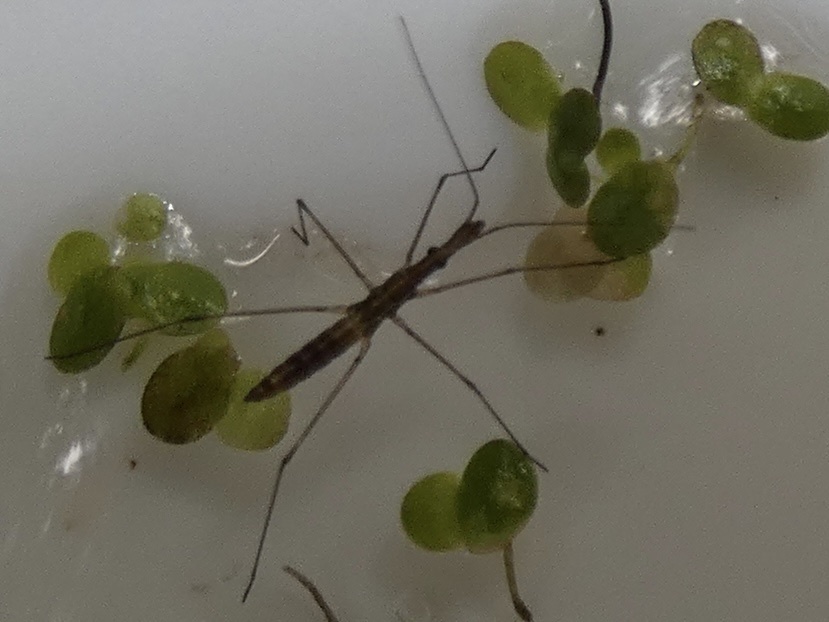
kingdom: Animalia
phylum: Arthropoda
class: Insecta
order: Hemiptera
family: Hydrometridae
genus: Hydrometra
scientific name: Hydrometra
